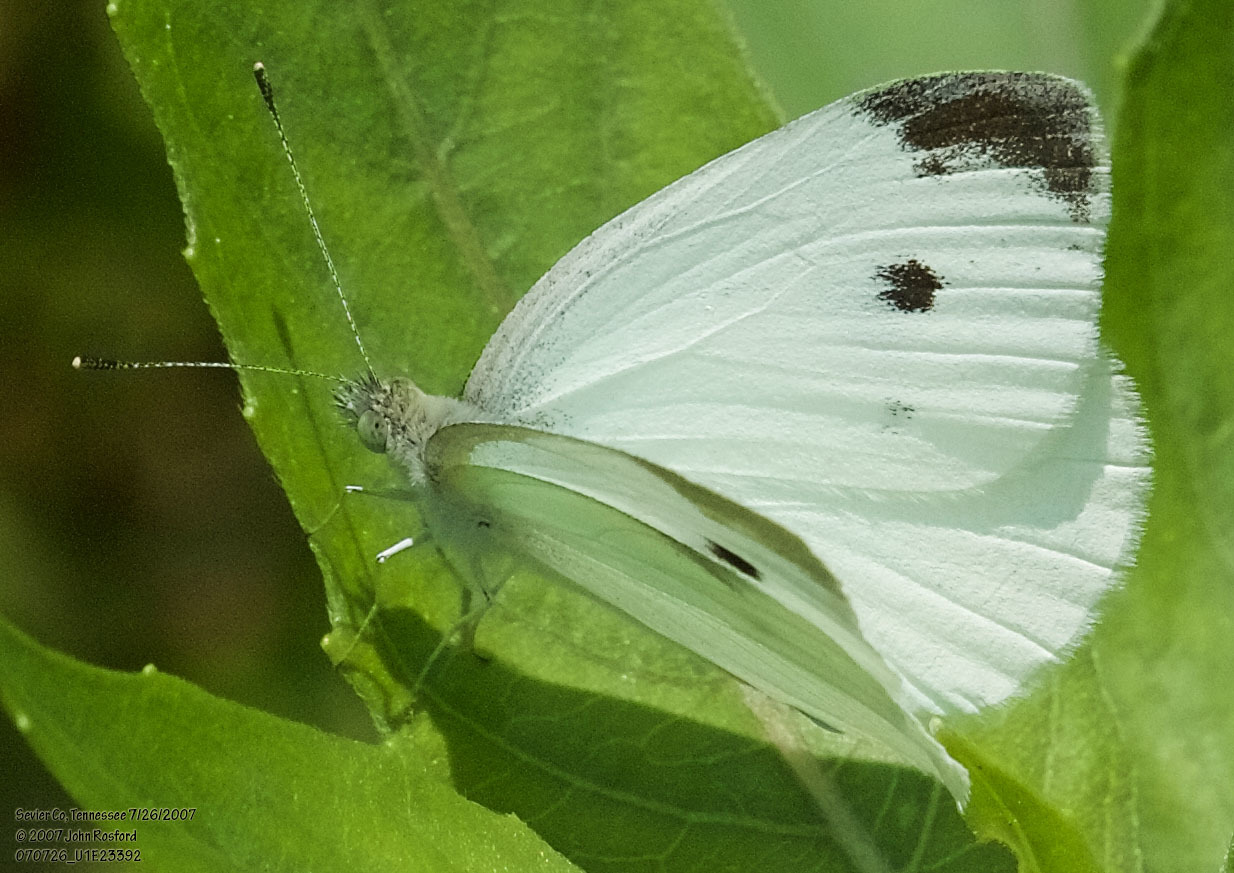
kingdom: Animalia
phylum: Arthropoda
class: Insecta
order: Lepidoptera
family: Pieridae
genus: Pieris
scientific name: Pieris rapae
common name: Small white
